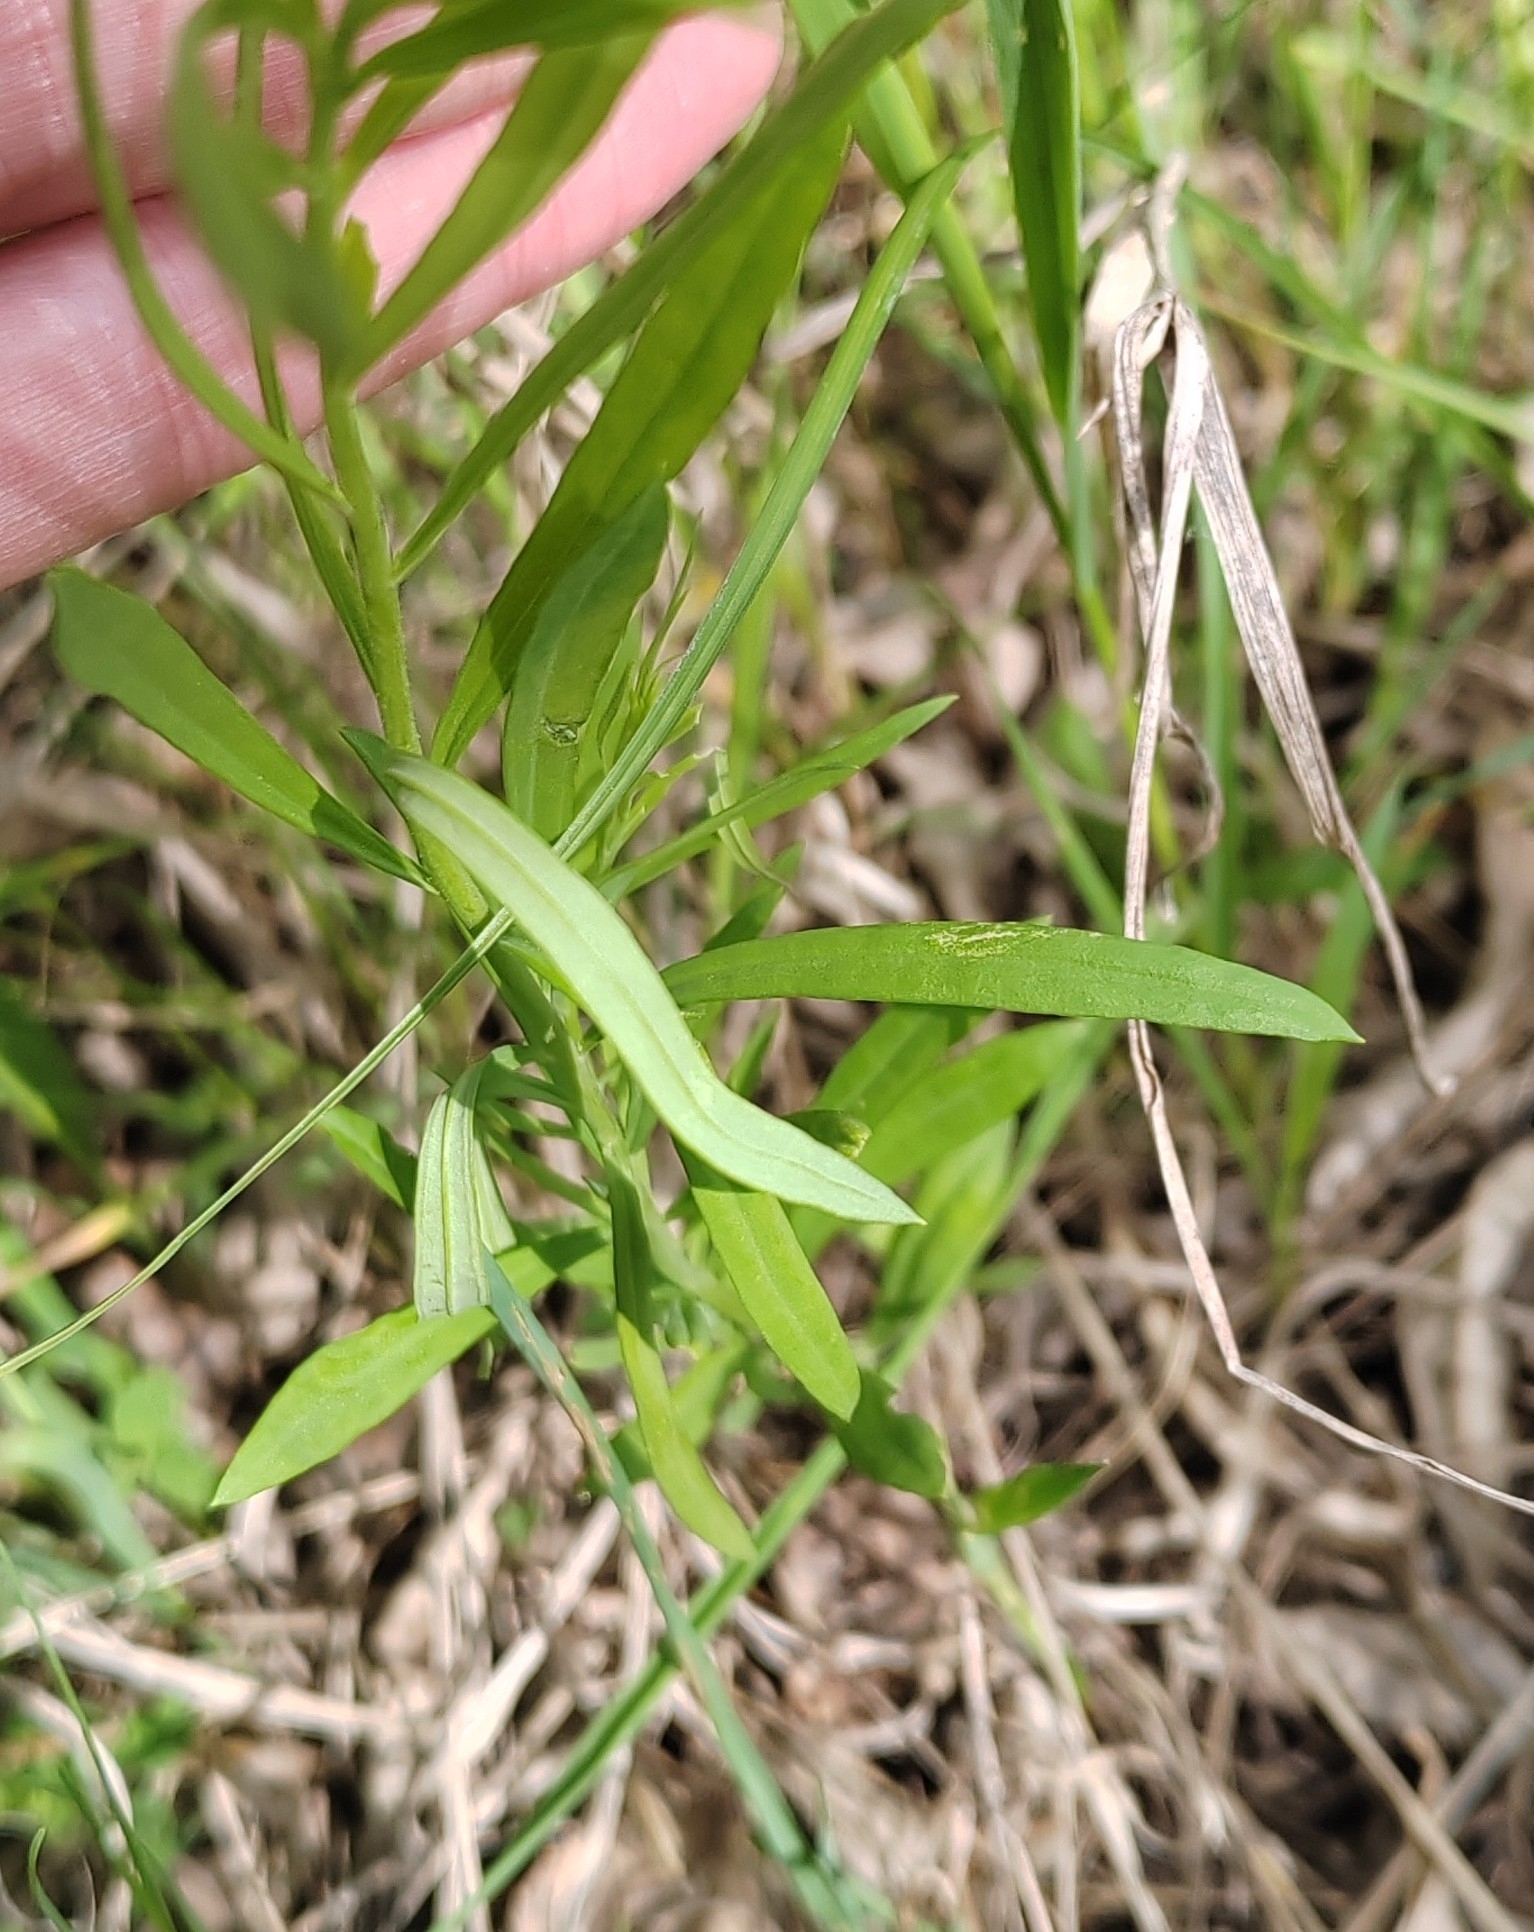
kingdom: Plantae
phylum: Tracheophyta
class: Magnoliopsida
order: Lamiales
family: Plantaginaceae
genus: Linaria
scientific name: Linaria vulgaris
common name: Butter and eggs
